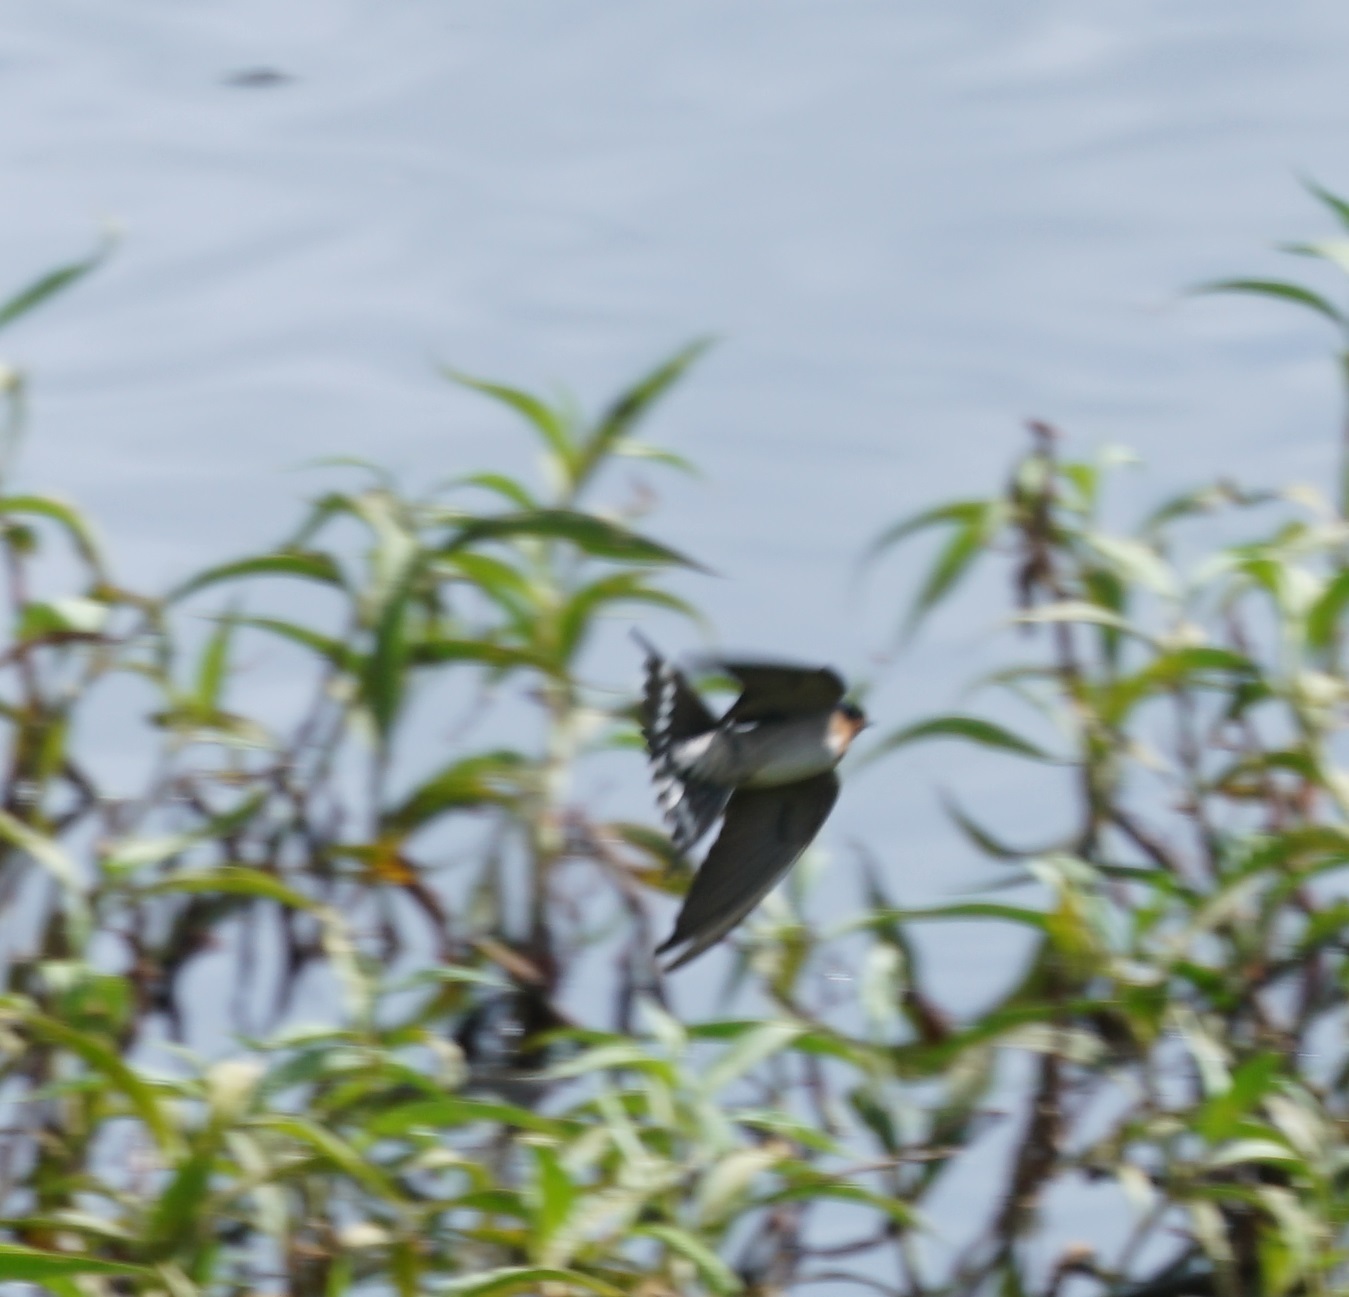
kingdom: Animalia
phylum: Chordata
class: Aves
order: Passeriformes
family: Hirundinidae
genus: Hirundo
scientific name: Hirundo neoxena
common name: Welcome swallow
